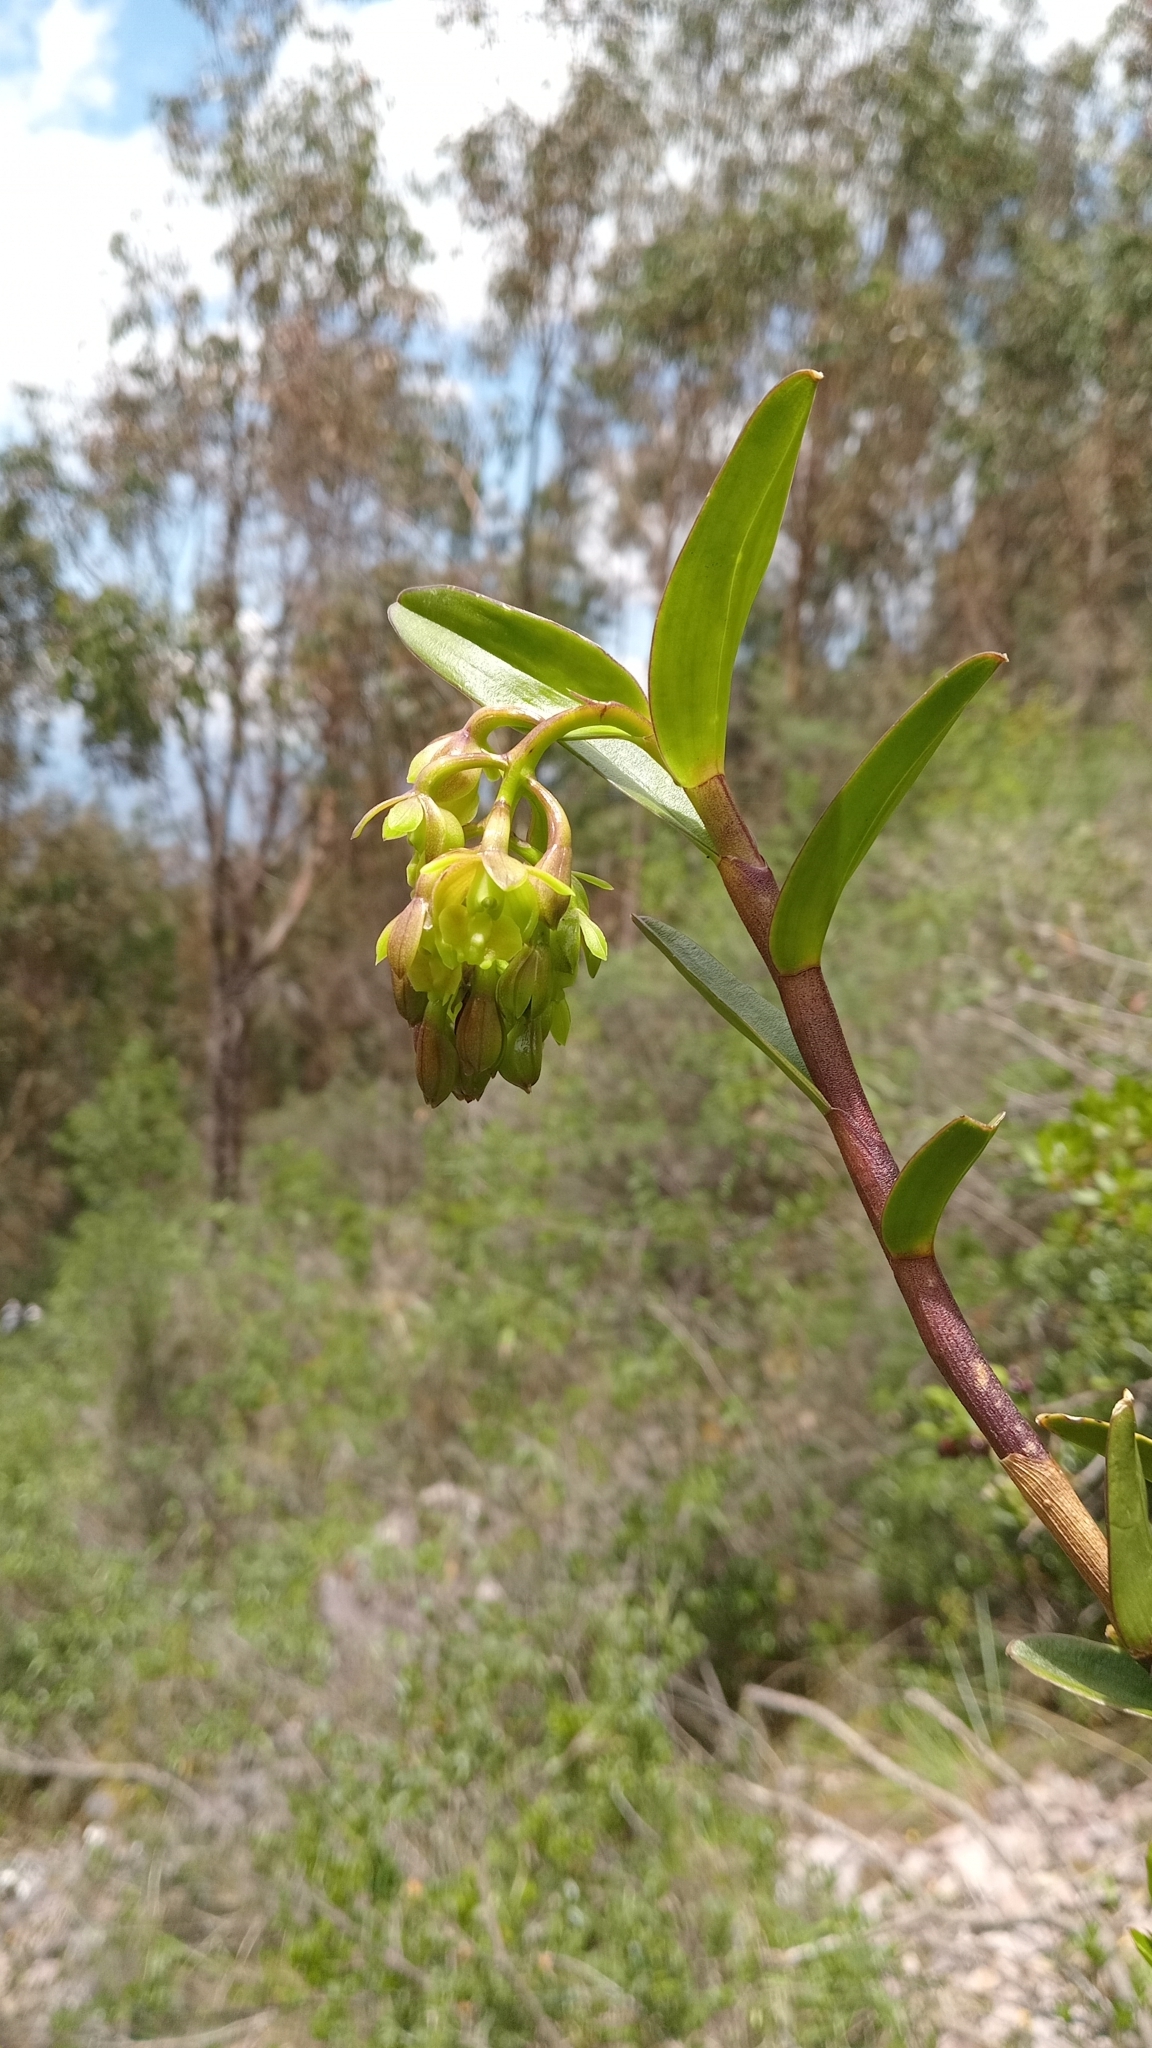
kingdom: Plantae
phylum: Tracheophyta
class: Liliopsida
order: Asparagales
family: Orchidaceae
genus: Epidendrum
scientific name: Epidendrum inamoenum
